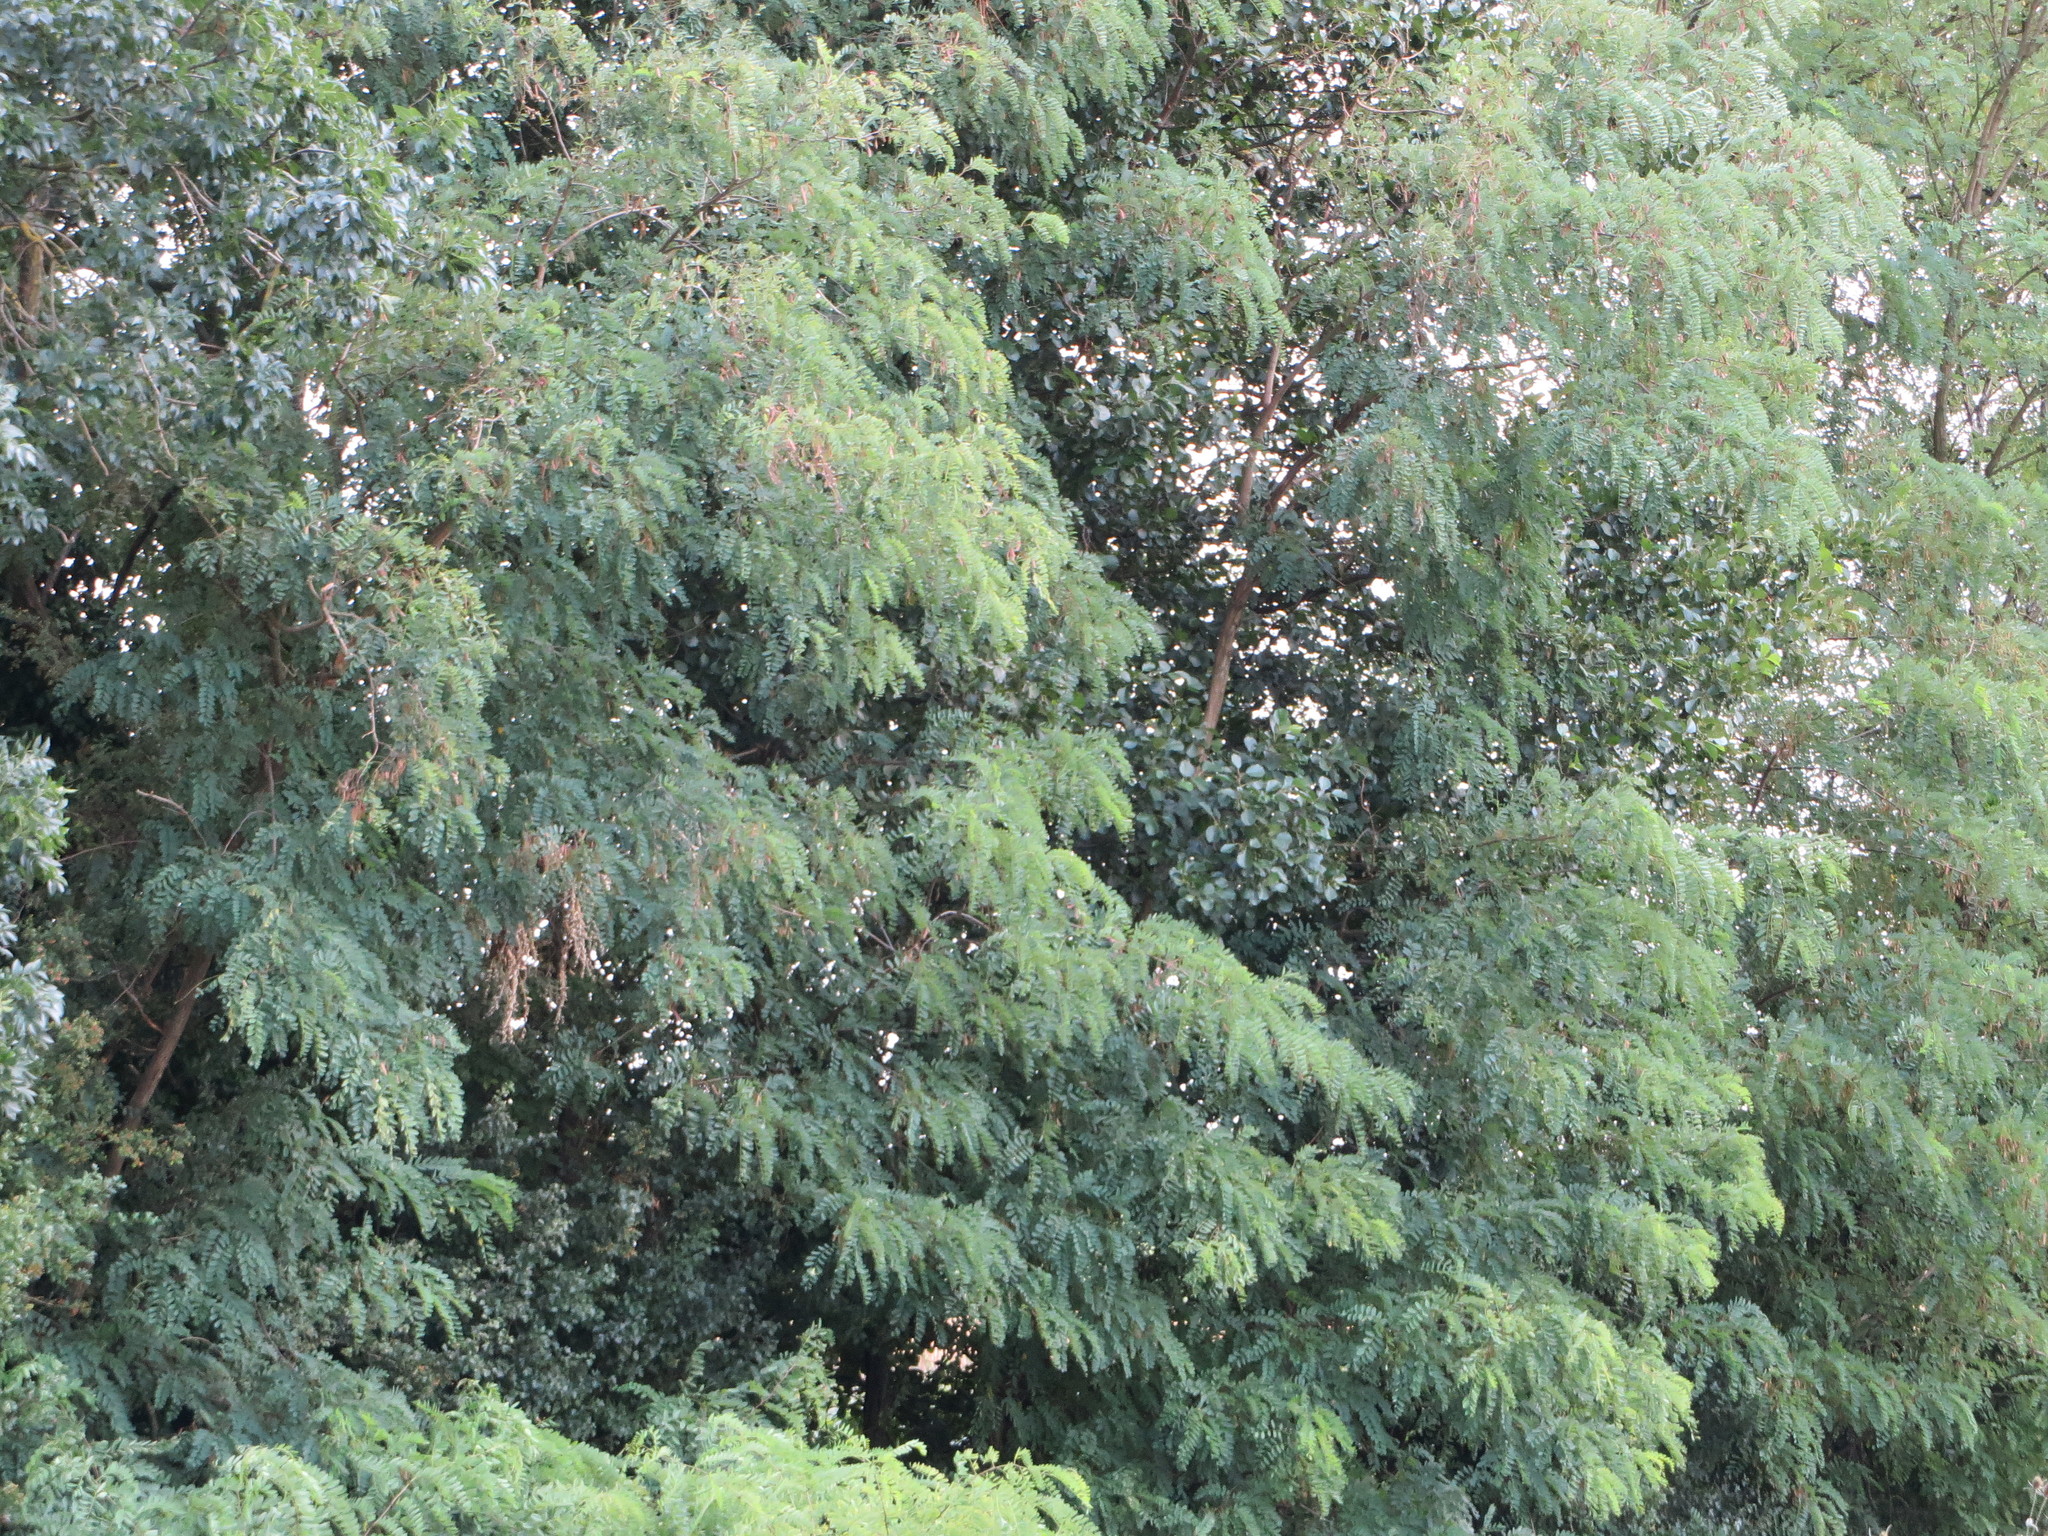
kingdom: Plantae
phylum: Tracheophyta
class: Magnoliopsida
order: Fabales
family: Fabaceae
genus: Robinia
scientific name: Robinia pseudoacacia
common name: Black locust
